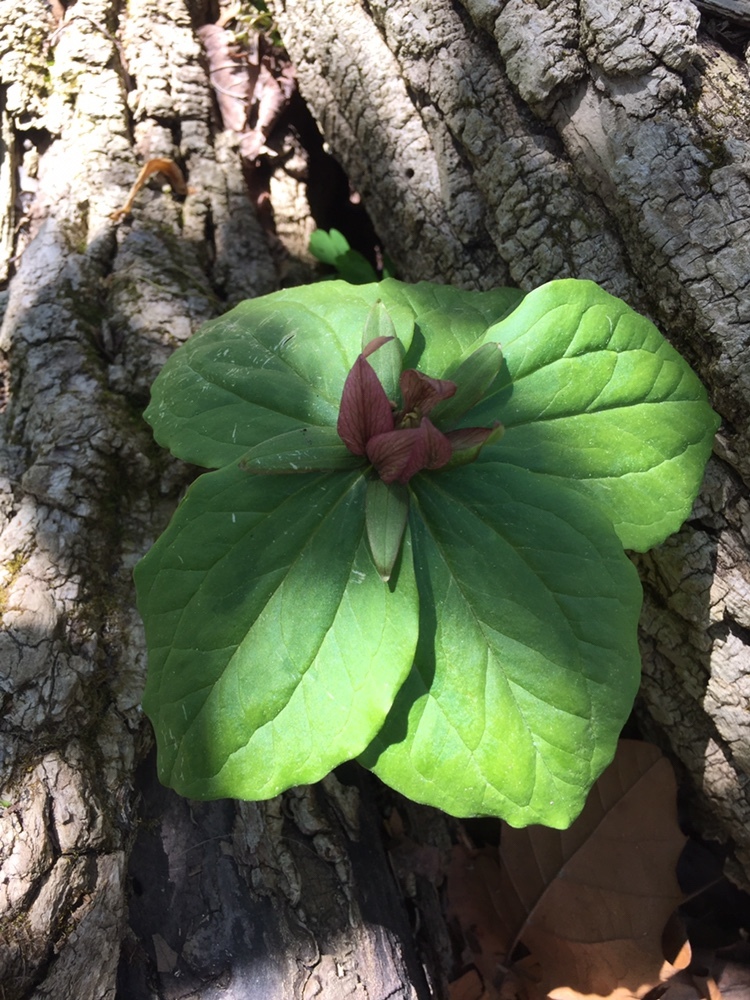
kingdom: Plantae
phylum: Tracheophyta
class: Liliopsida
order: Liliales
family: Melanthiaceae
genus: Trillium
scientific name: Trillium sessile
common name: Sessile trillium
